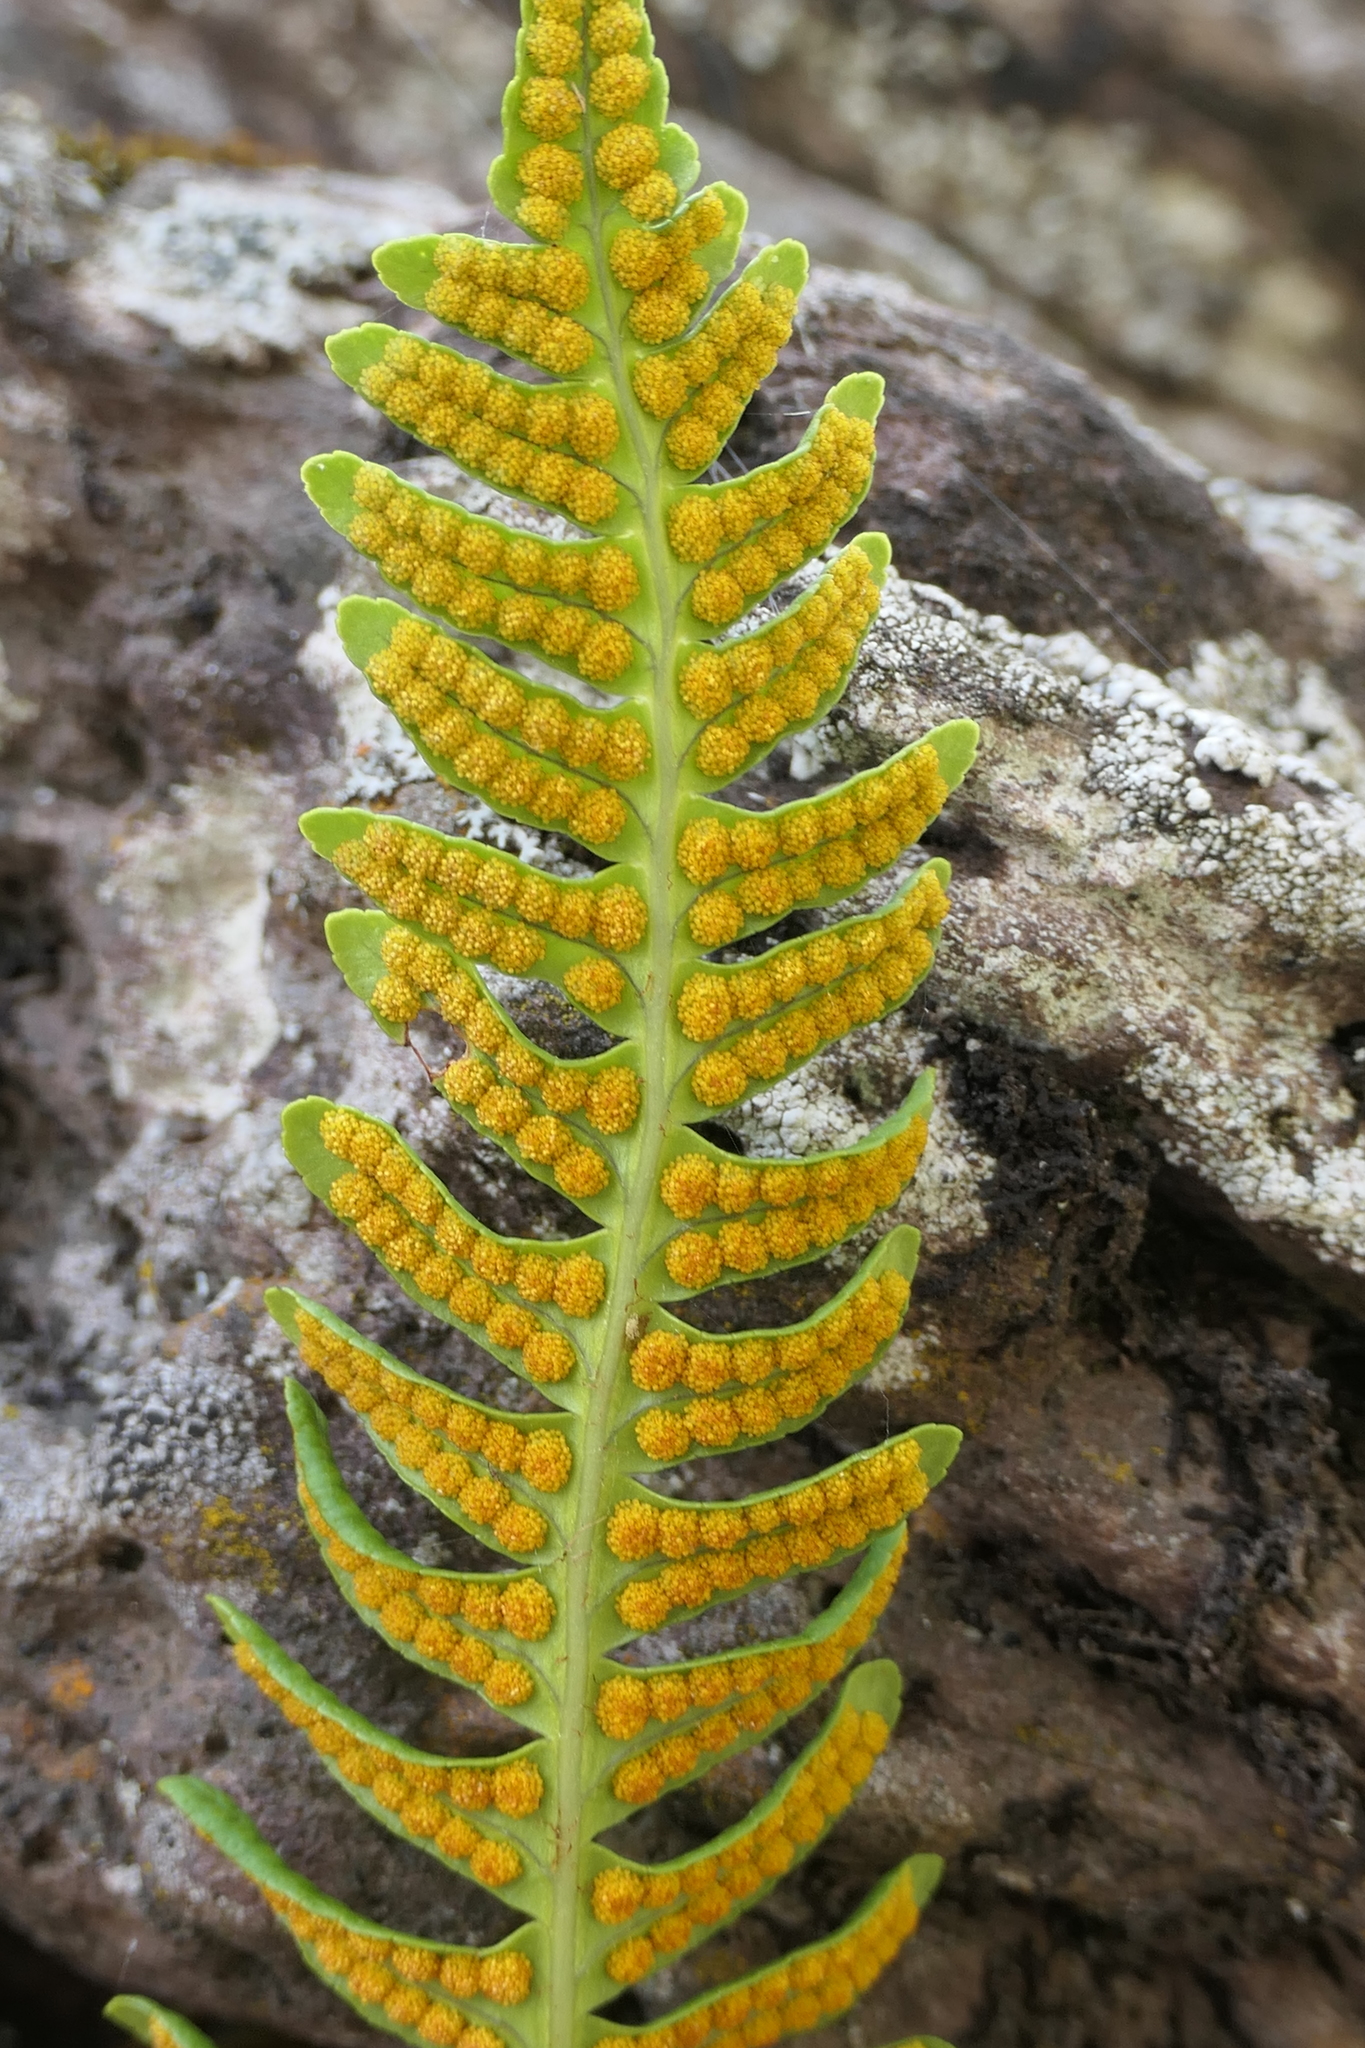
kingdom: Plantae
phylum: Tracheophyta
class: Polypodiopsida
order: Polypodiales
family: Polypodiaceae
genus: Polypodium
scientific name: Polypodium vulgare
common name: Common polypody
